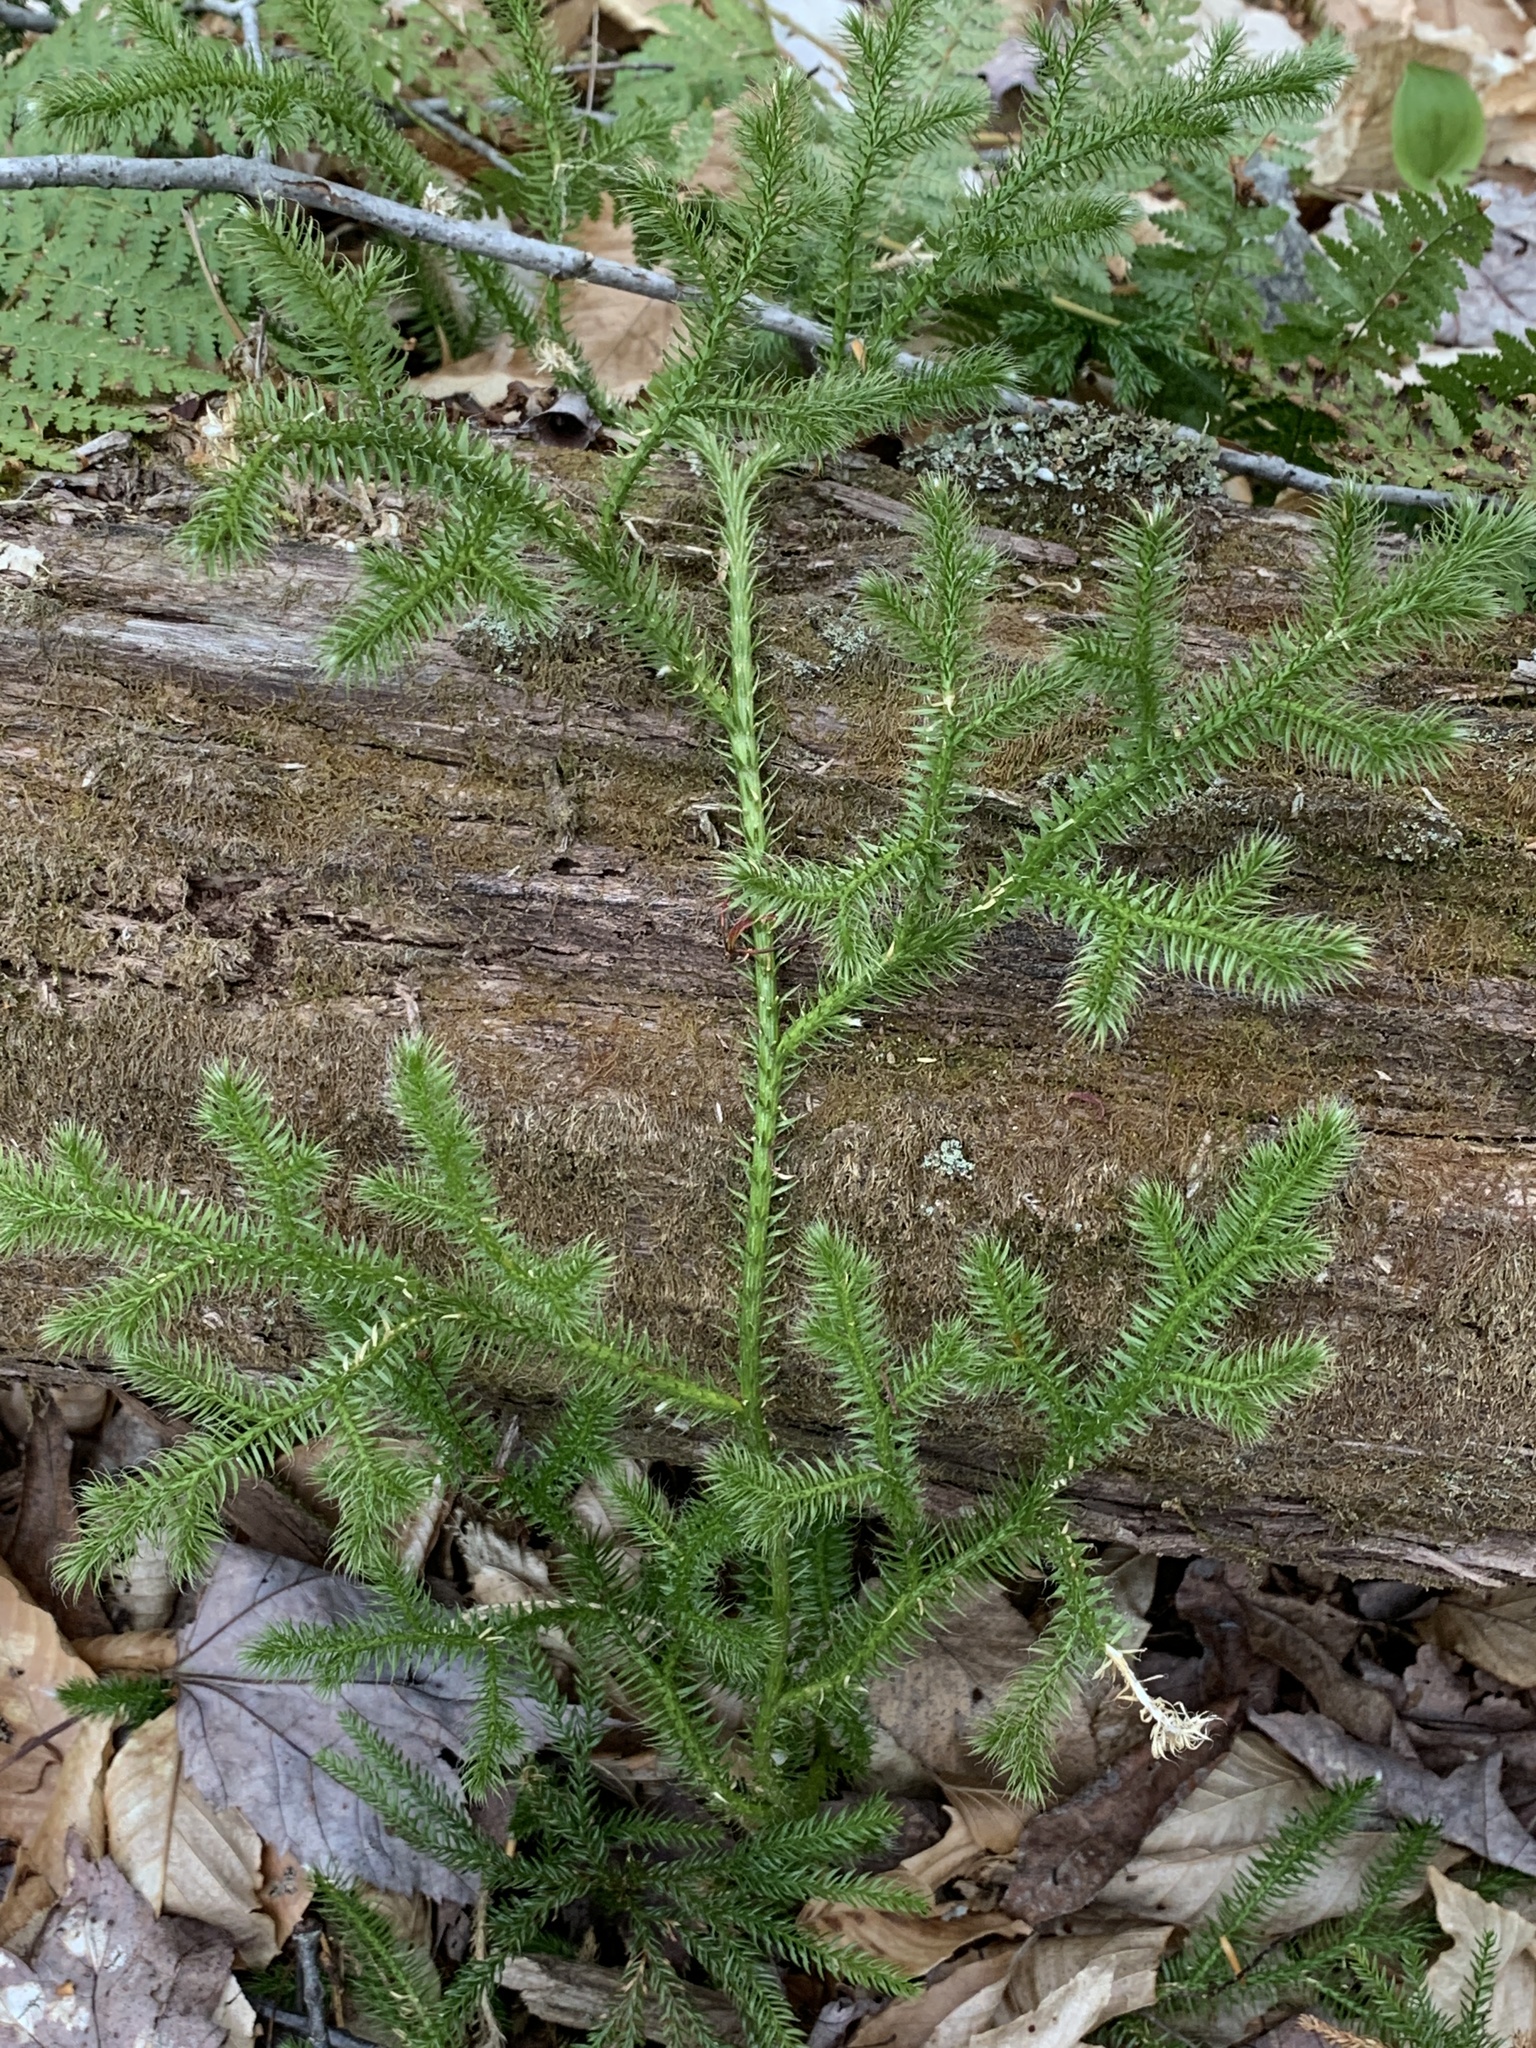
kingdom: Plantae
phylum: Tracheophyta
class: Lycopodiopsida
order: Lycopodiales
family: Lycopodiaceae
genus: Lycopodium
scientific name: Lycopodium clavatum
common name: Stag's-horn clubmoss
